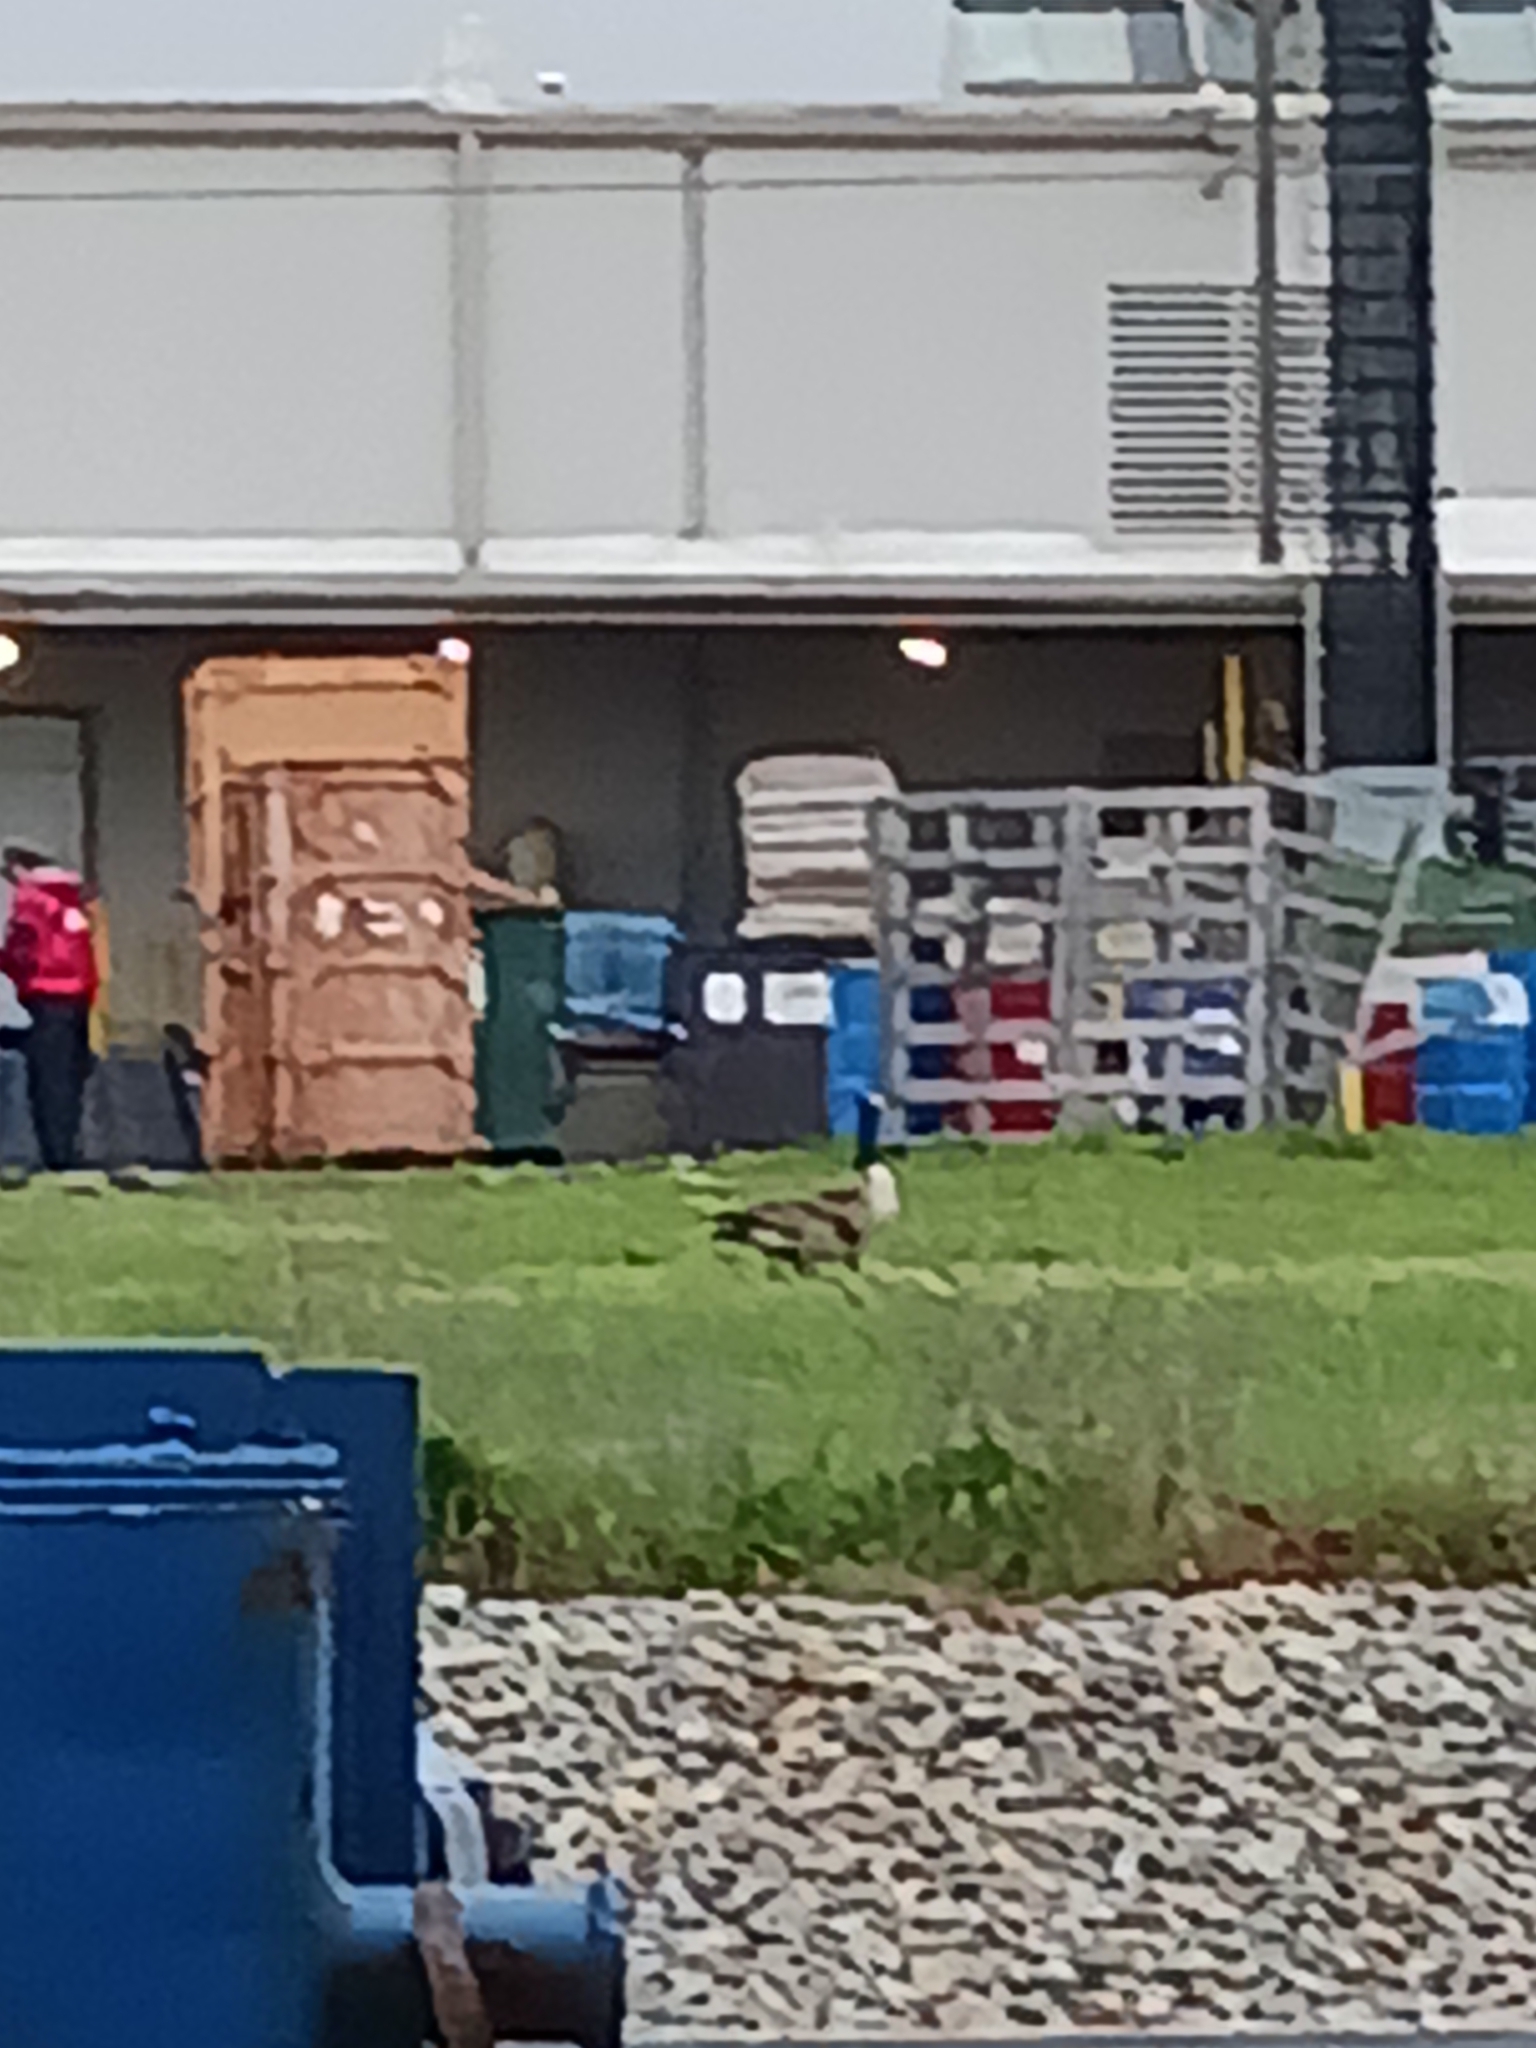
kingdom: Animalia
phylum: Chordata
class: Aves
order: Anseriformes
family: Anatidae
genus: Branta
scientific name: Branta canadensis
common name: Canada goose
